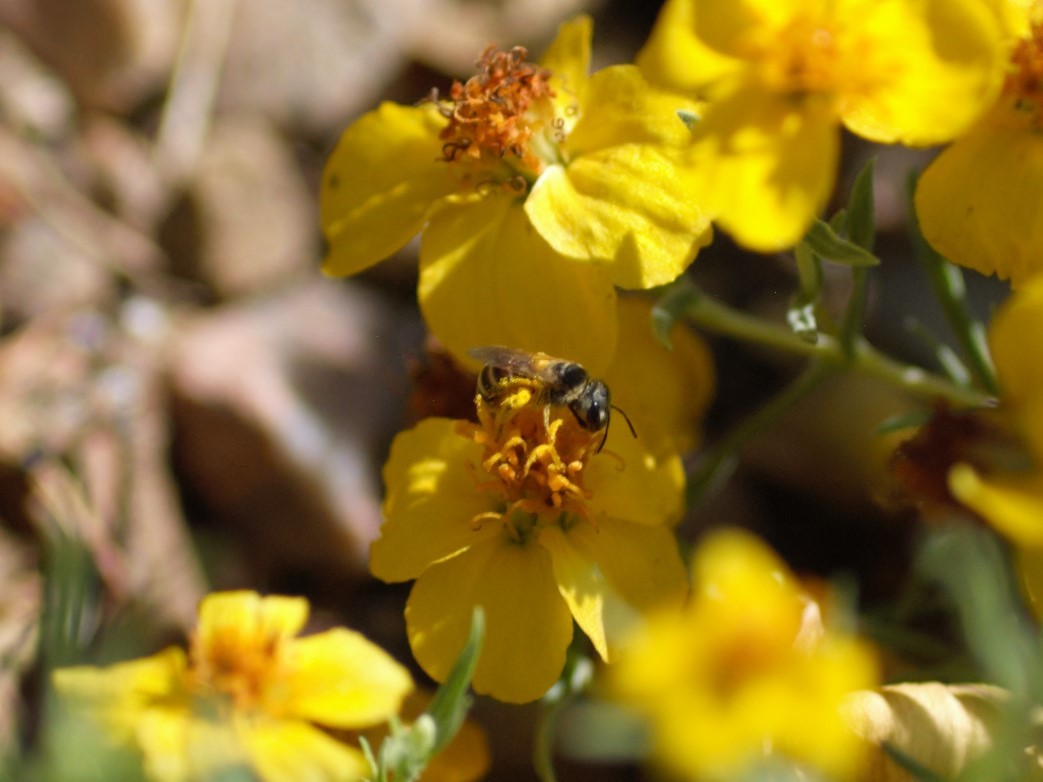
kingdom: Animalia
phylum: Arthropoda
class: Insecta
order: Hymenoptera
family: Halictidae
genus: Halictus
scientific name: Halictus ligatus
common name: Ligated furrow bee
